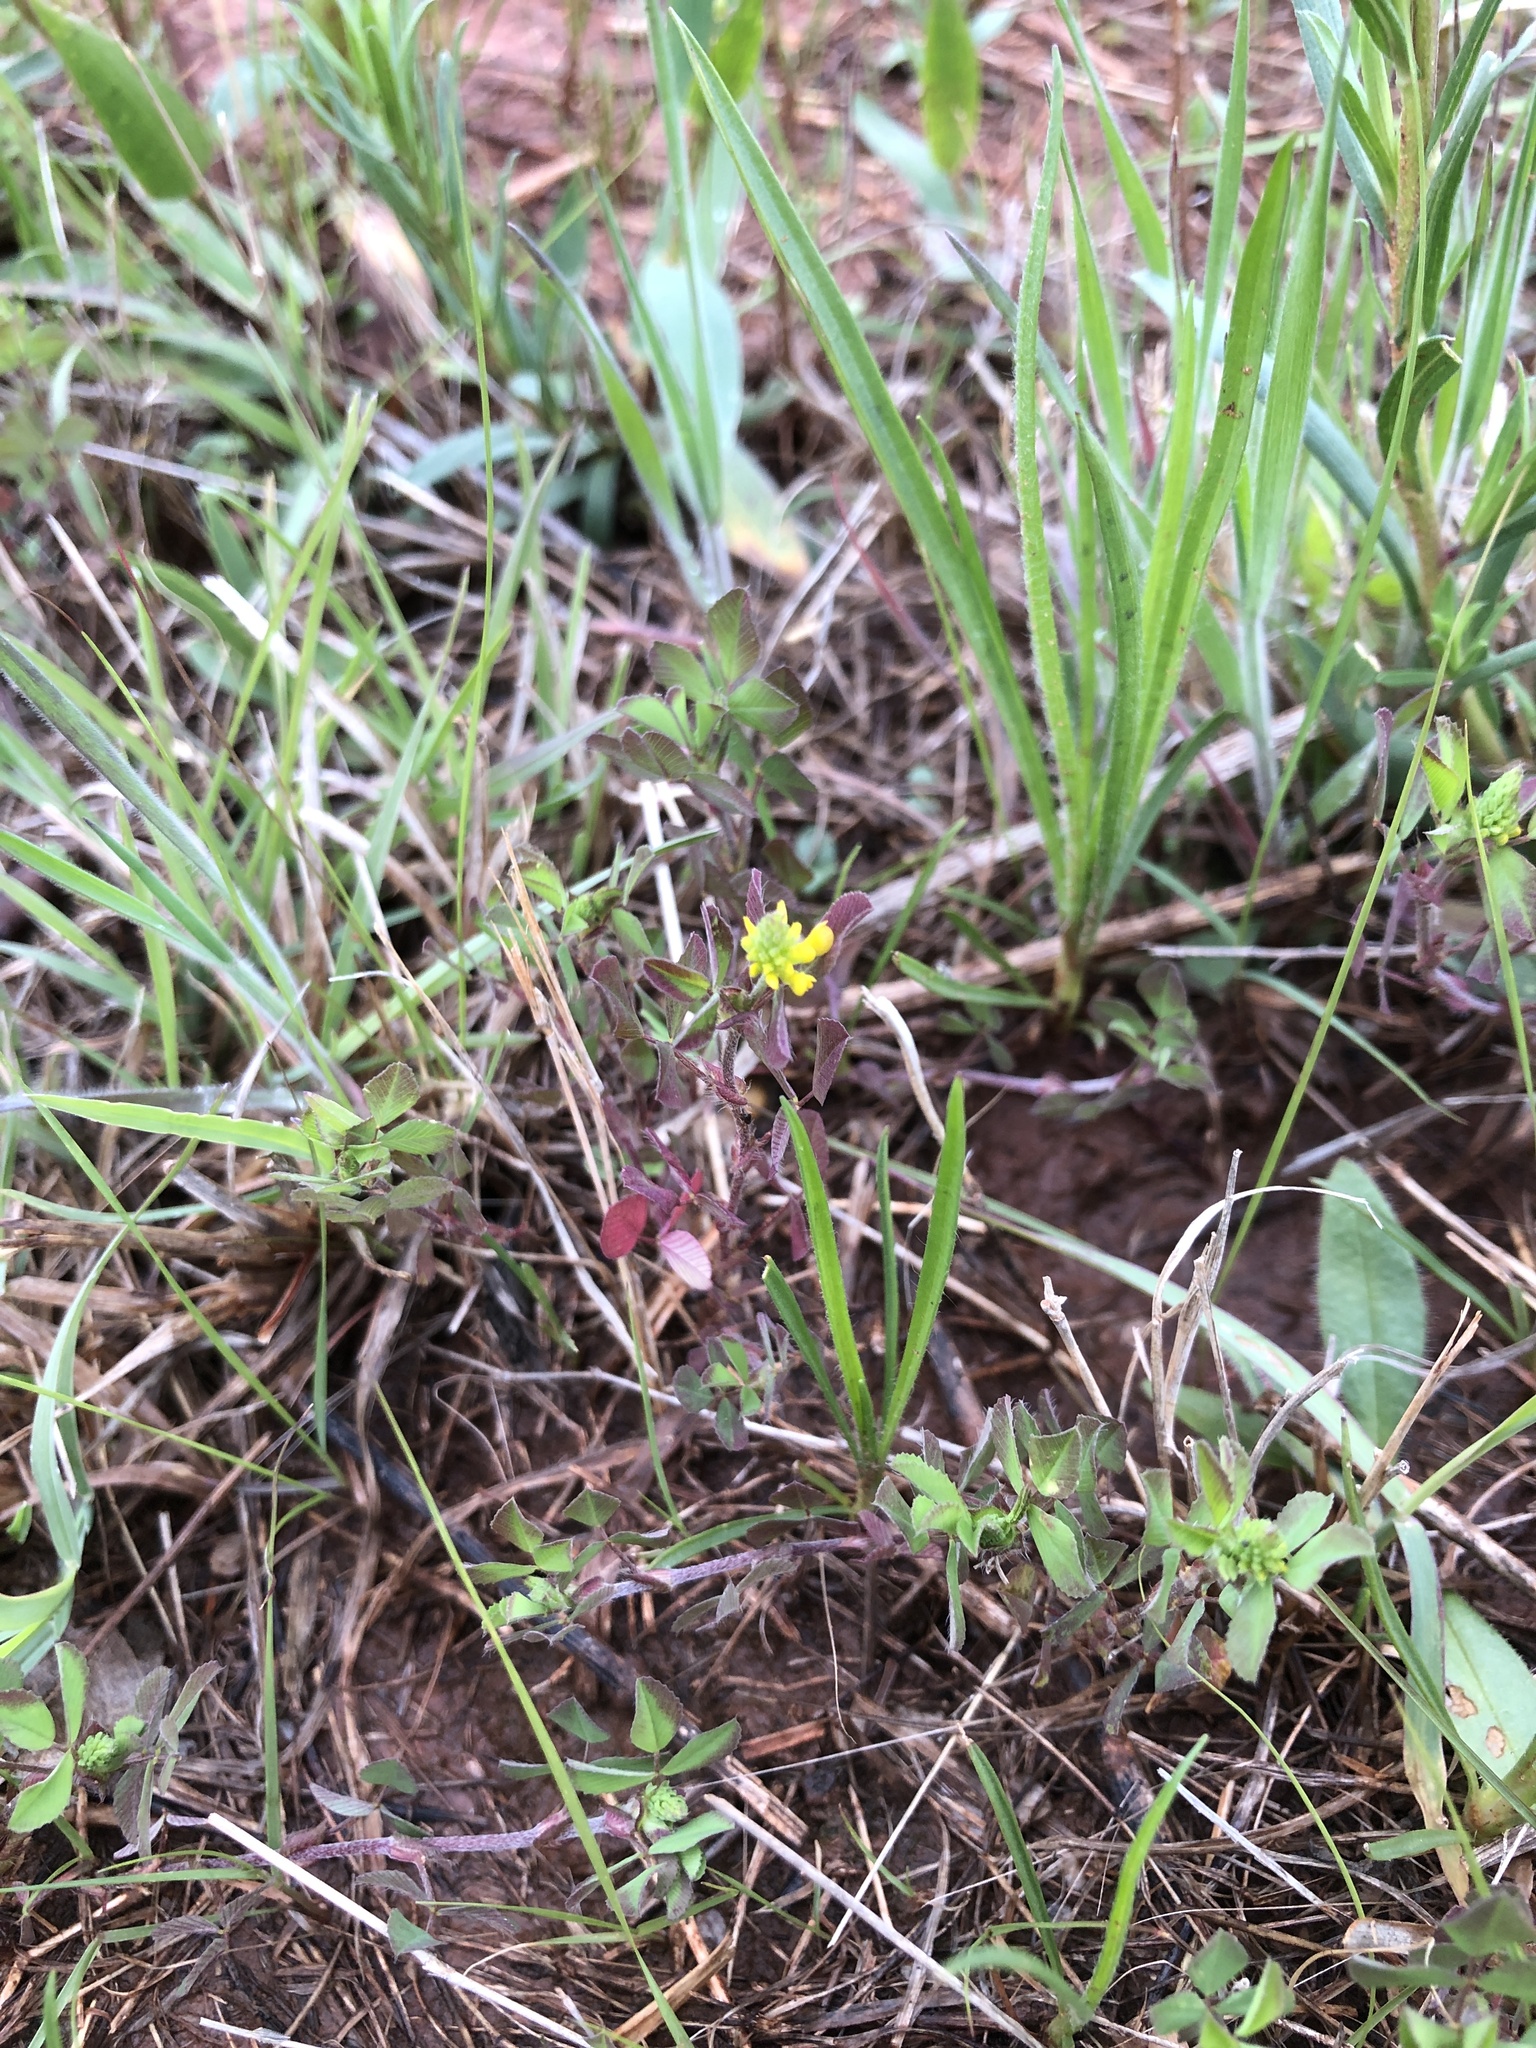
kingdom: Plantae
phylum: Tracheophyta
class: Magnoliopsida
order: Fabales
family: Fabaceae
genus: Trifolium
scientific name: Trifolium campestre
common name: Field clover
